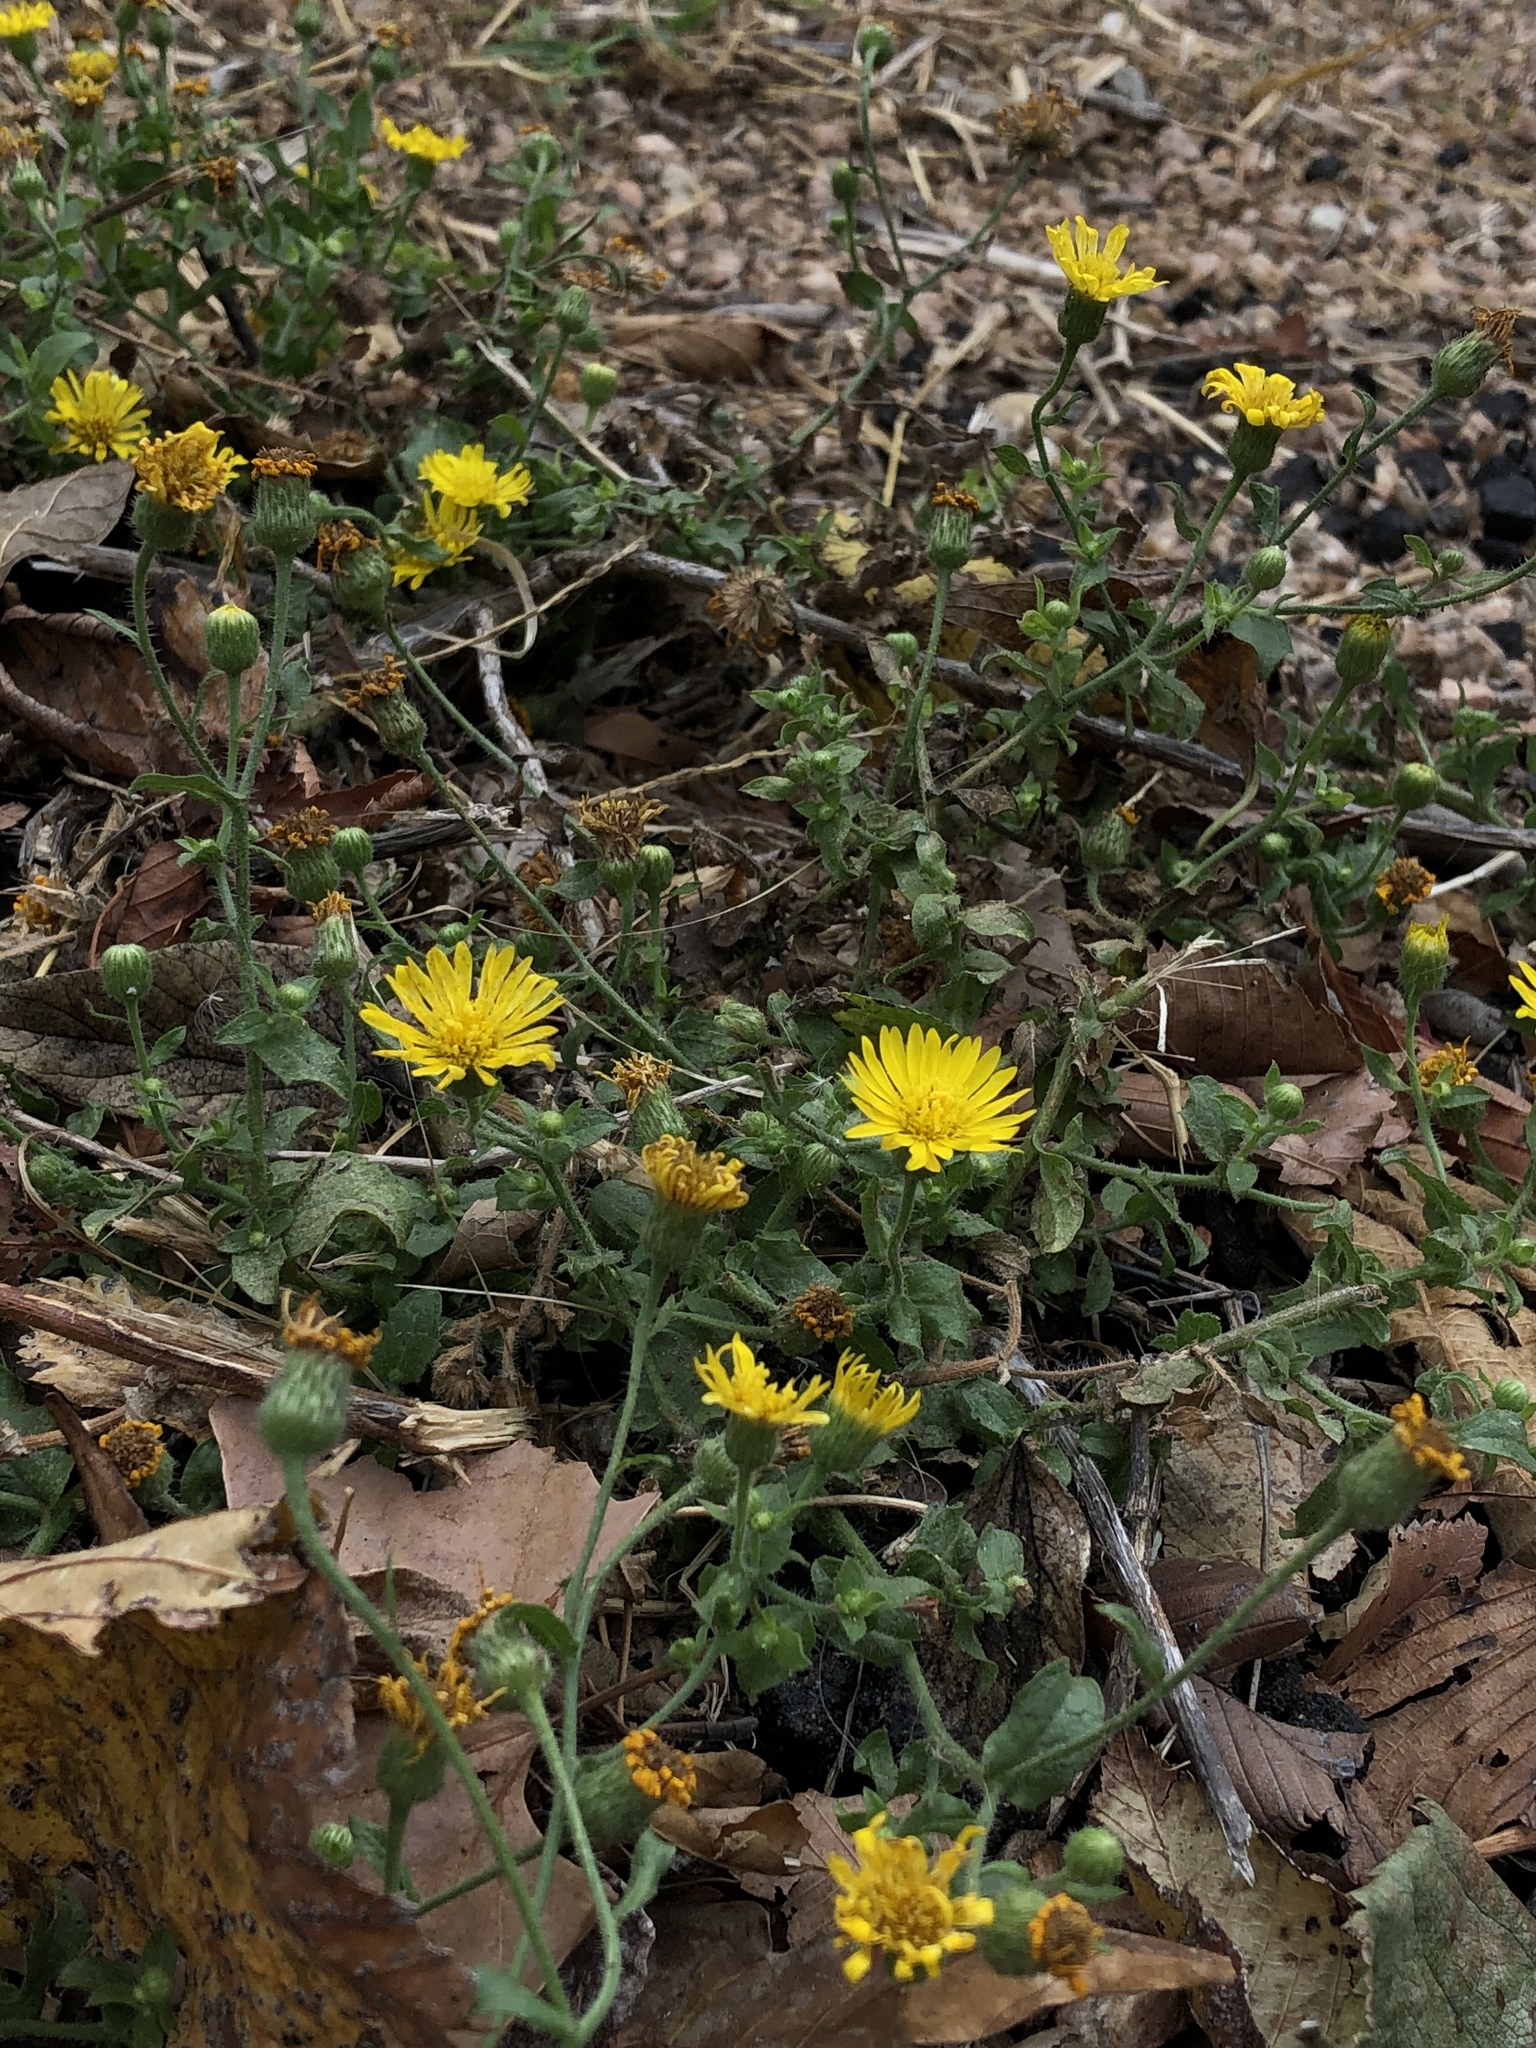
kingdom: Plantae
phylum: Tracheophyta
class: Magnoliopsida
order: Asterales
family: Asteraceae
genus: Heterotheca
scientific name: Heterotheca subaxillaris
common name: Camphorweed
